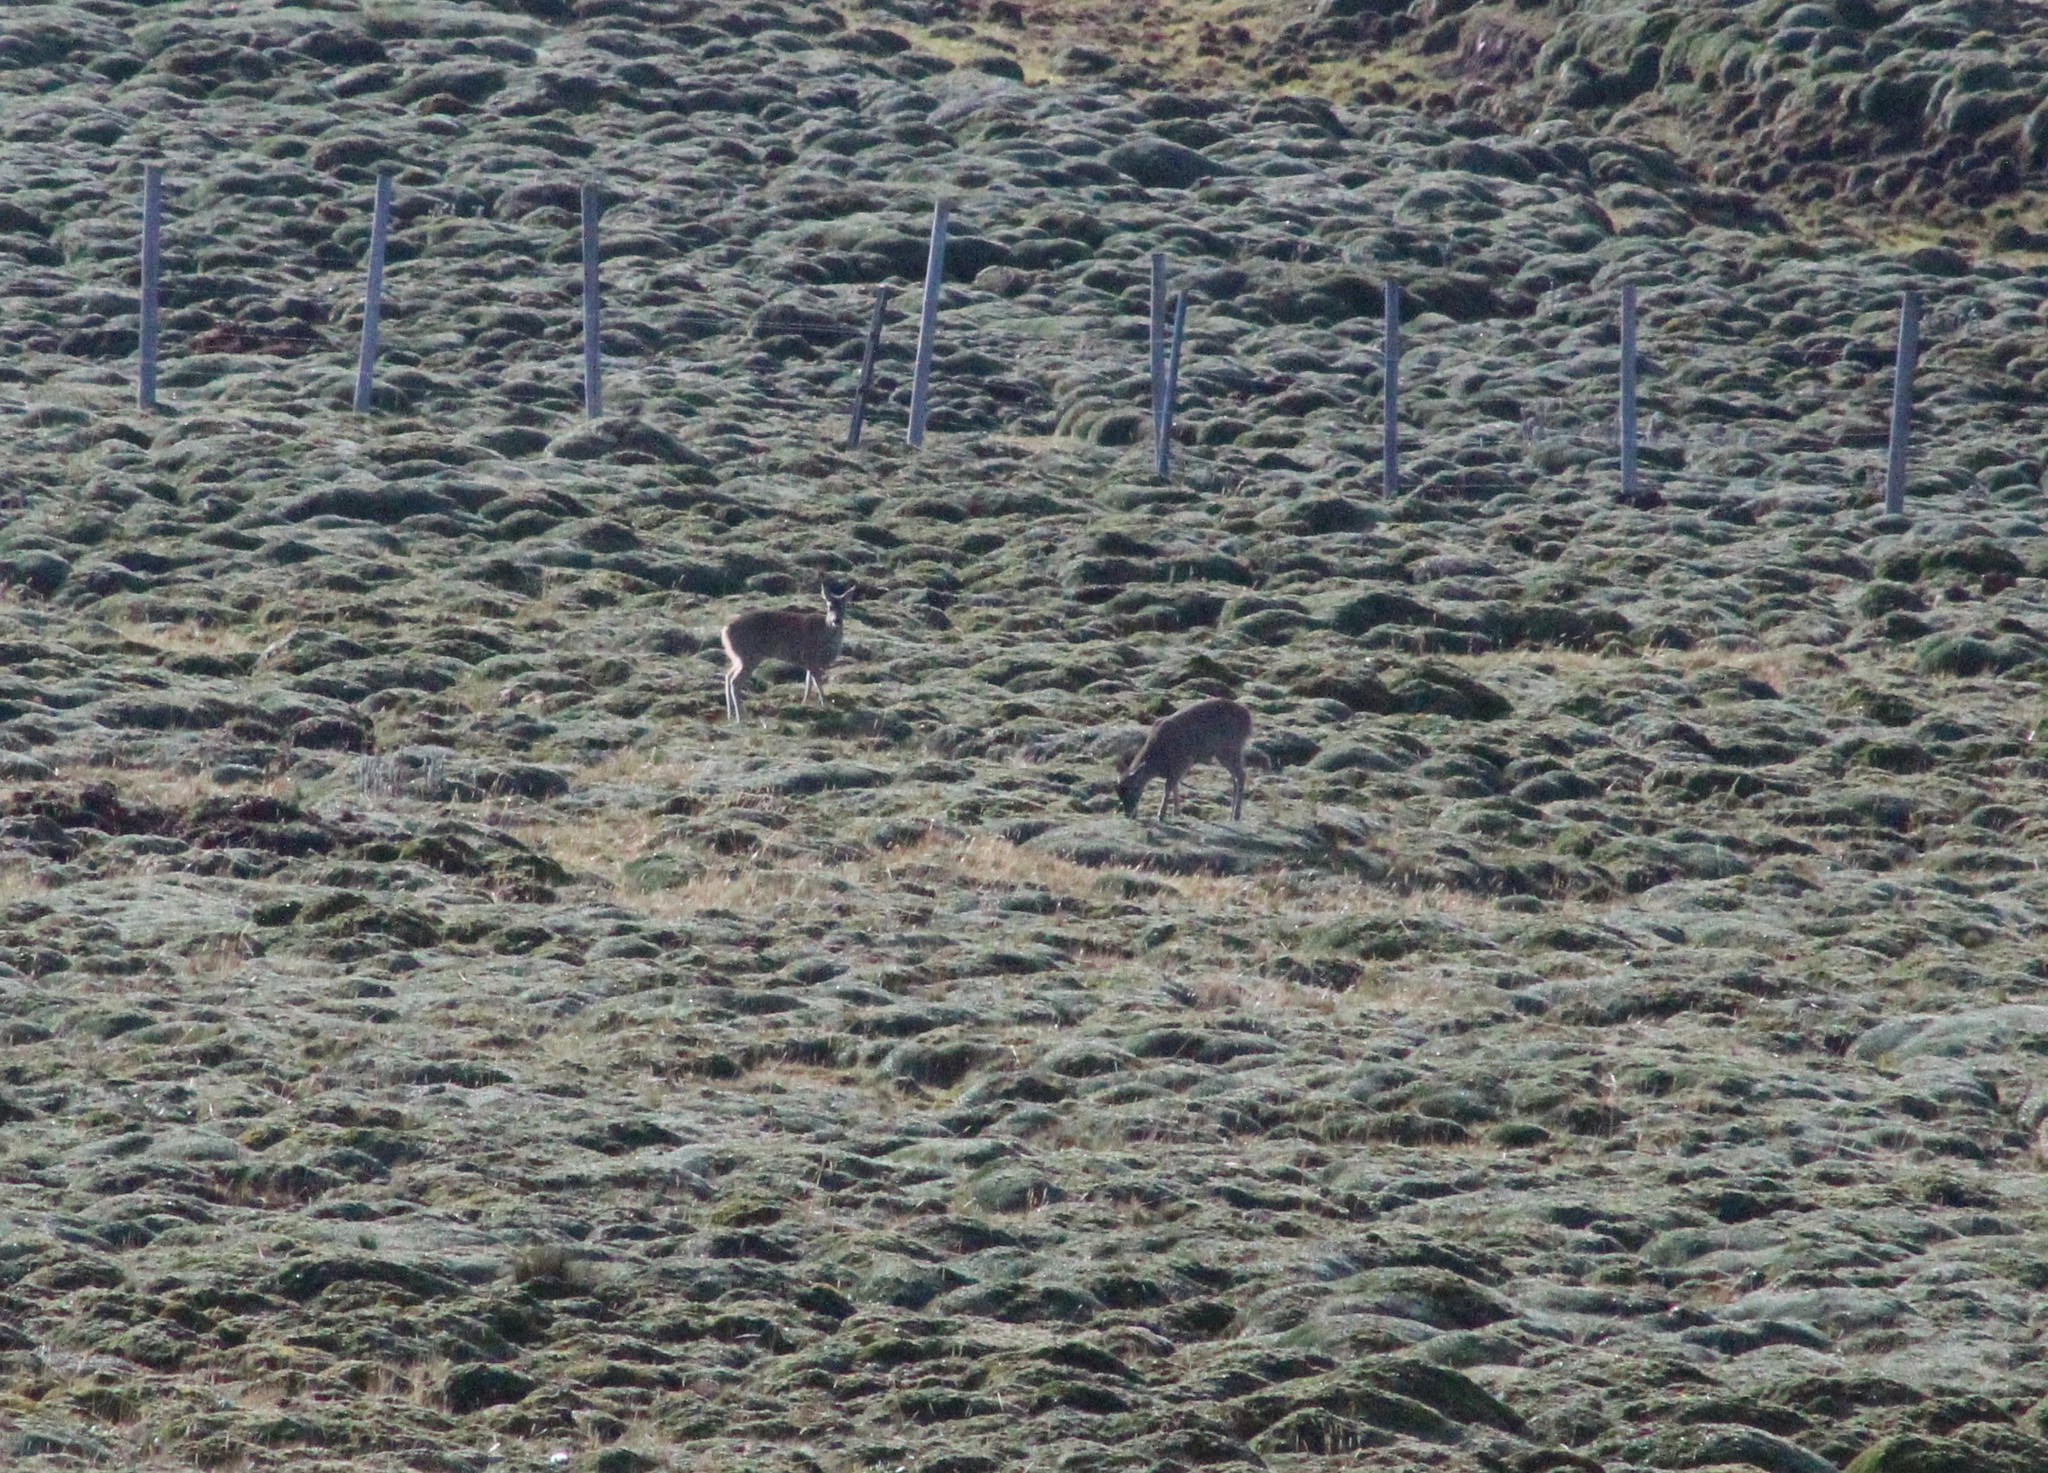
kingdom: Animalia
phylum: Chordata
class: Mammalia
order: Artiodactyla
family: Cervidae
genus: Odocoileus
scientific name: Odocoileus virginianus
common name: White-tailed deer
